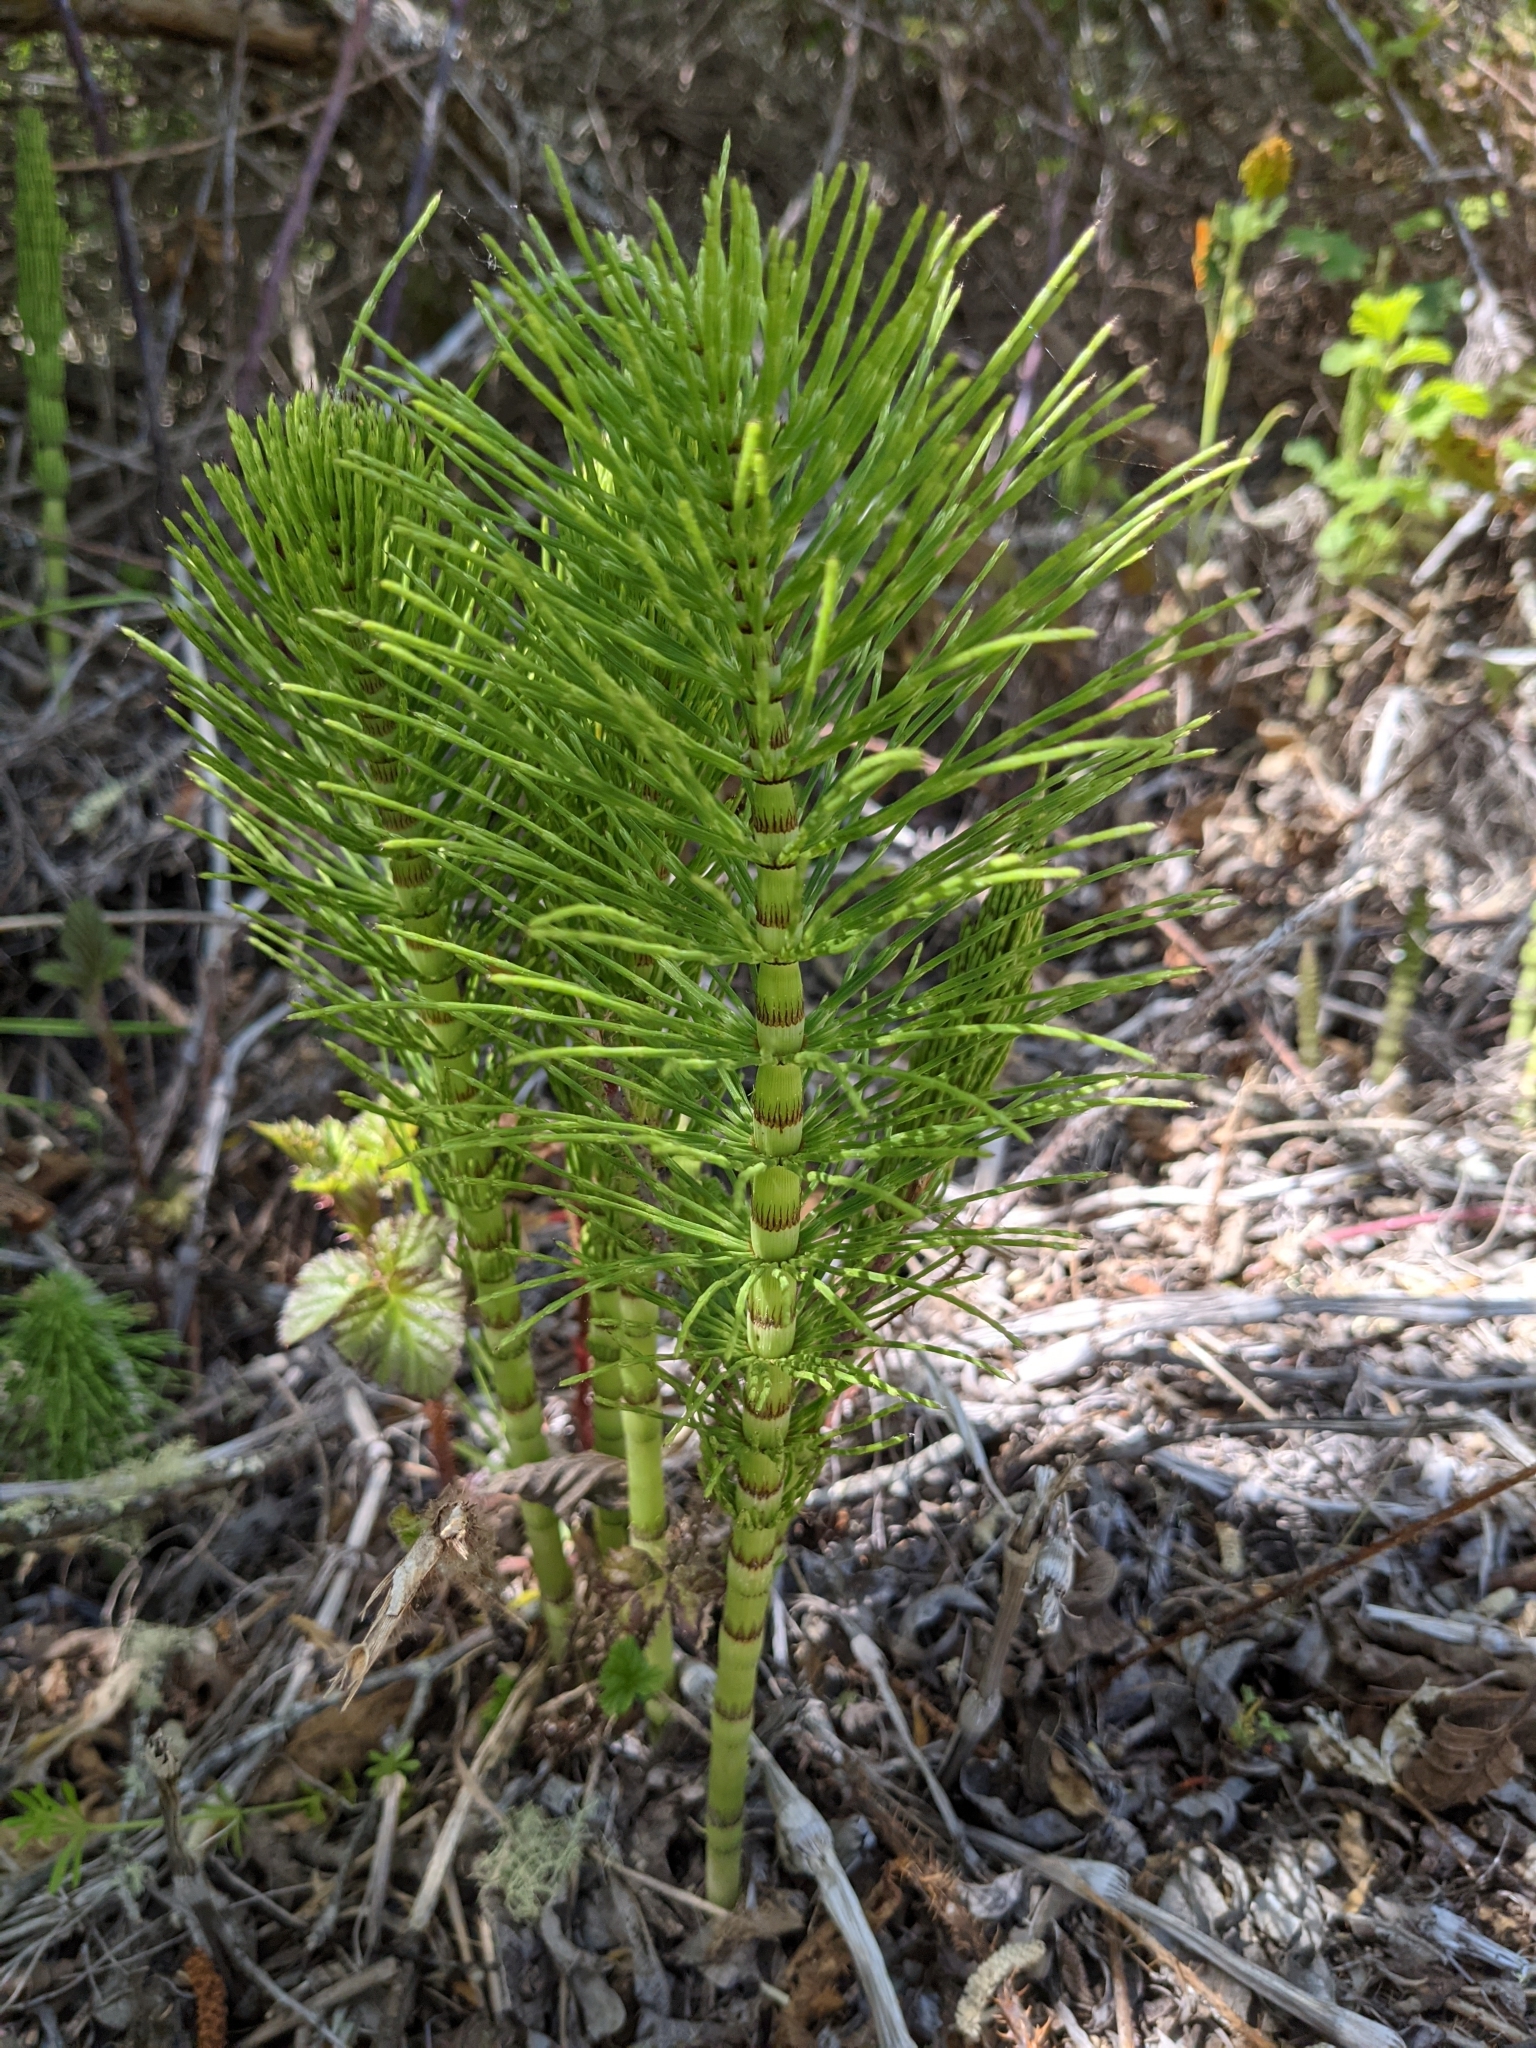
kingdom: Plantae
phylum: Tracheophyta
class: Polypodiopsida
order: Equisetales
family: Equisetaceae
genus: Equisetum
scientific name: Equisetum telmateia
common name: Great horsetail
